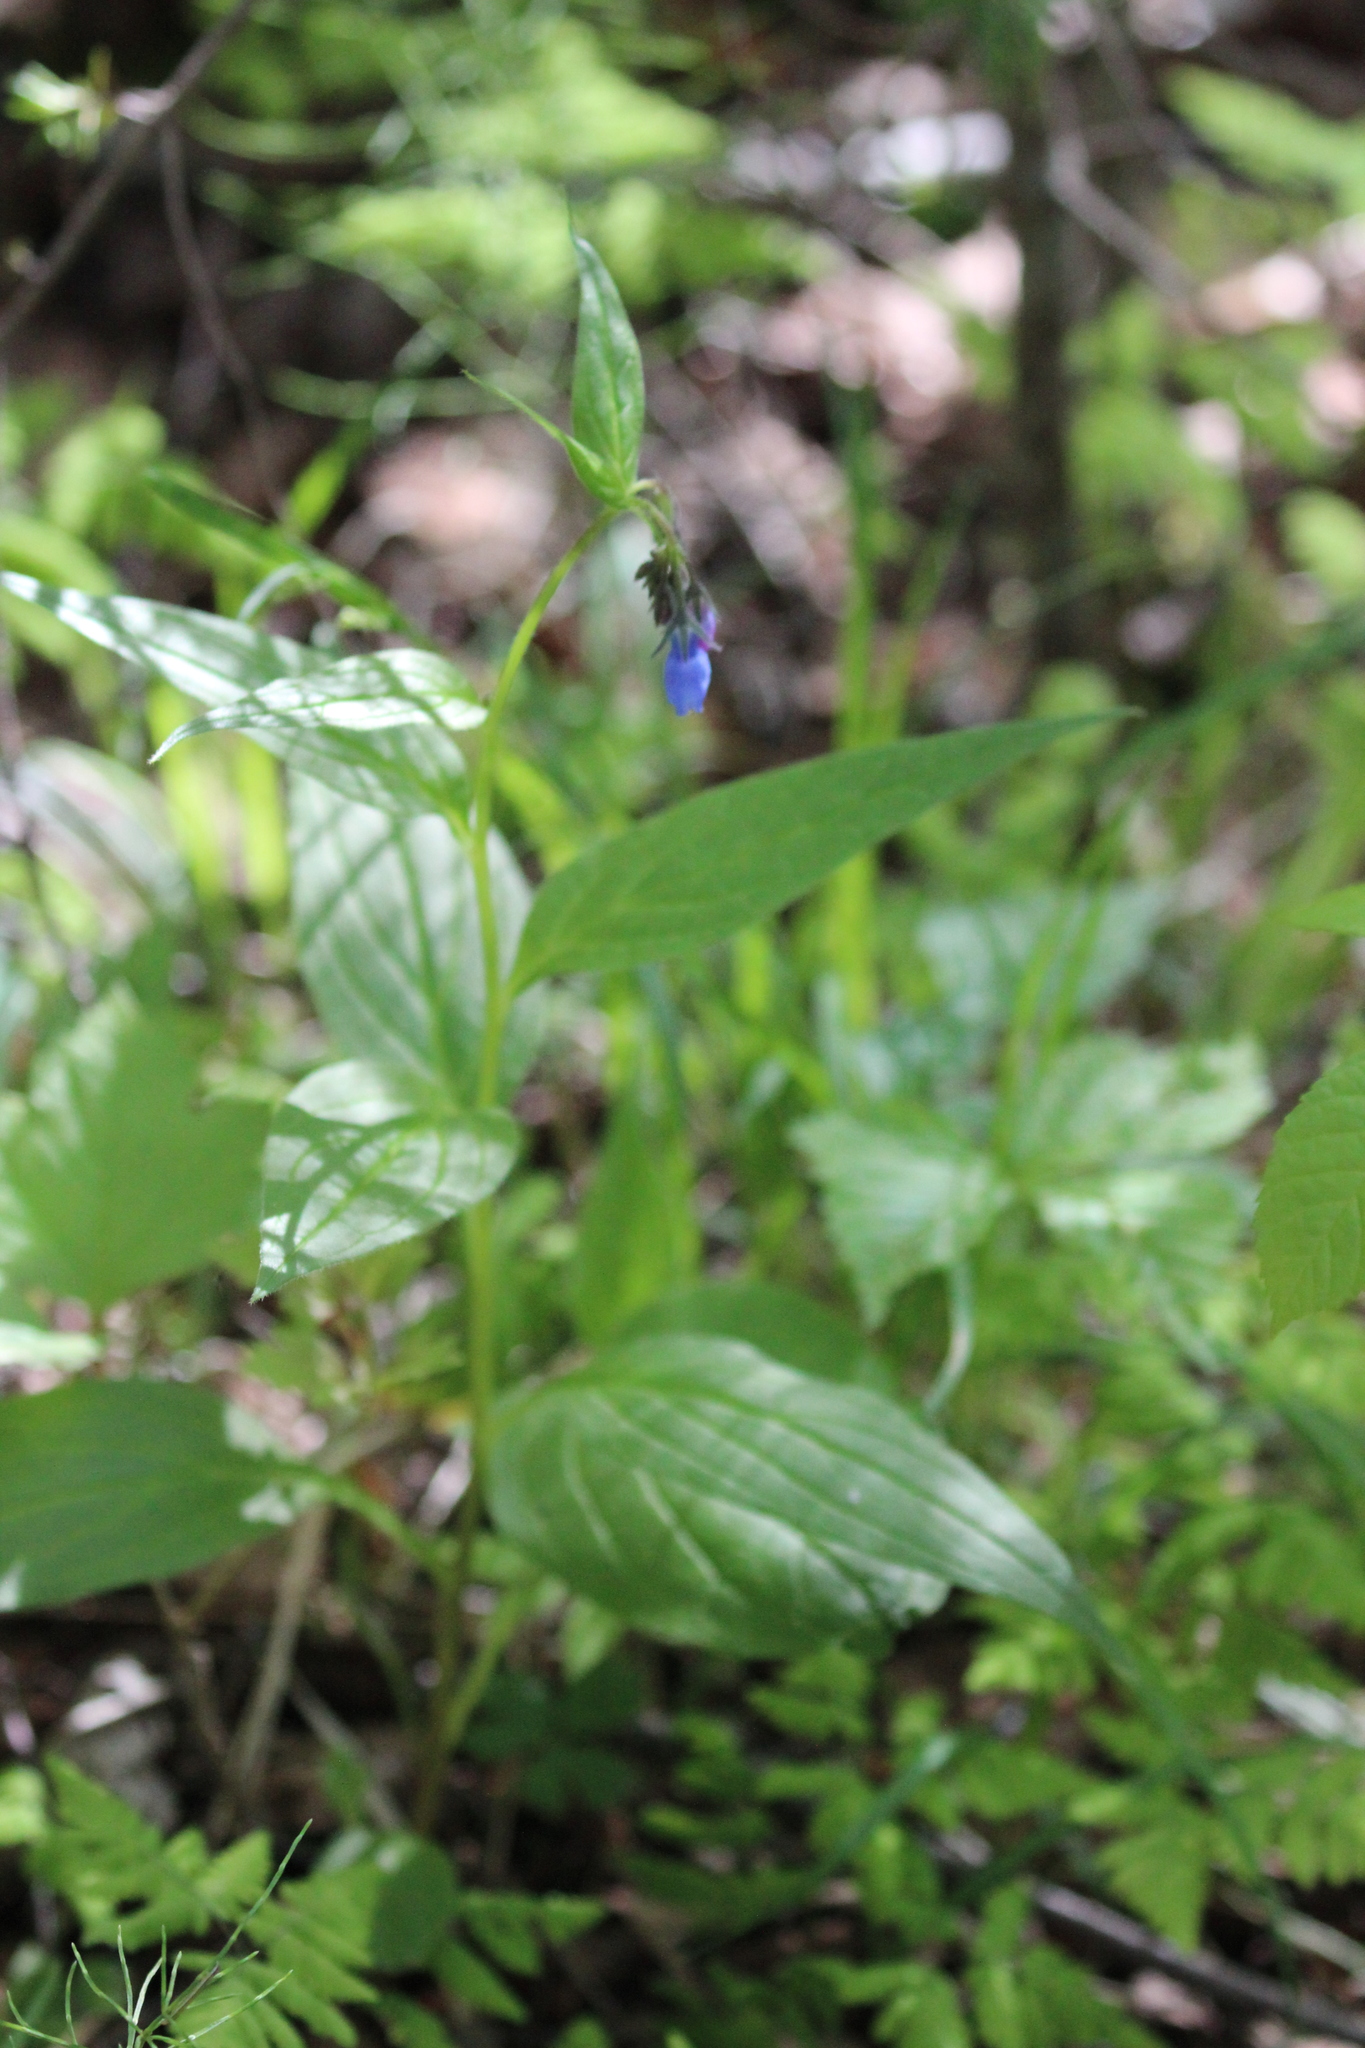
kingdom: Plantae
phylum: Tracheophyta
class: Magnoliopsida
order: Boraginales
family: Boraginaceae
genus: Mertensia
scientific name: Mertensia paniculata
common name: Panicled bluebells
